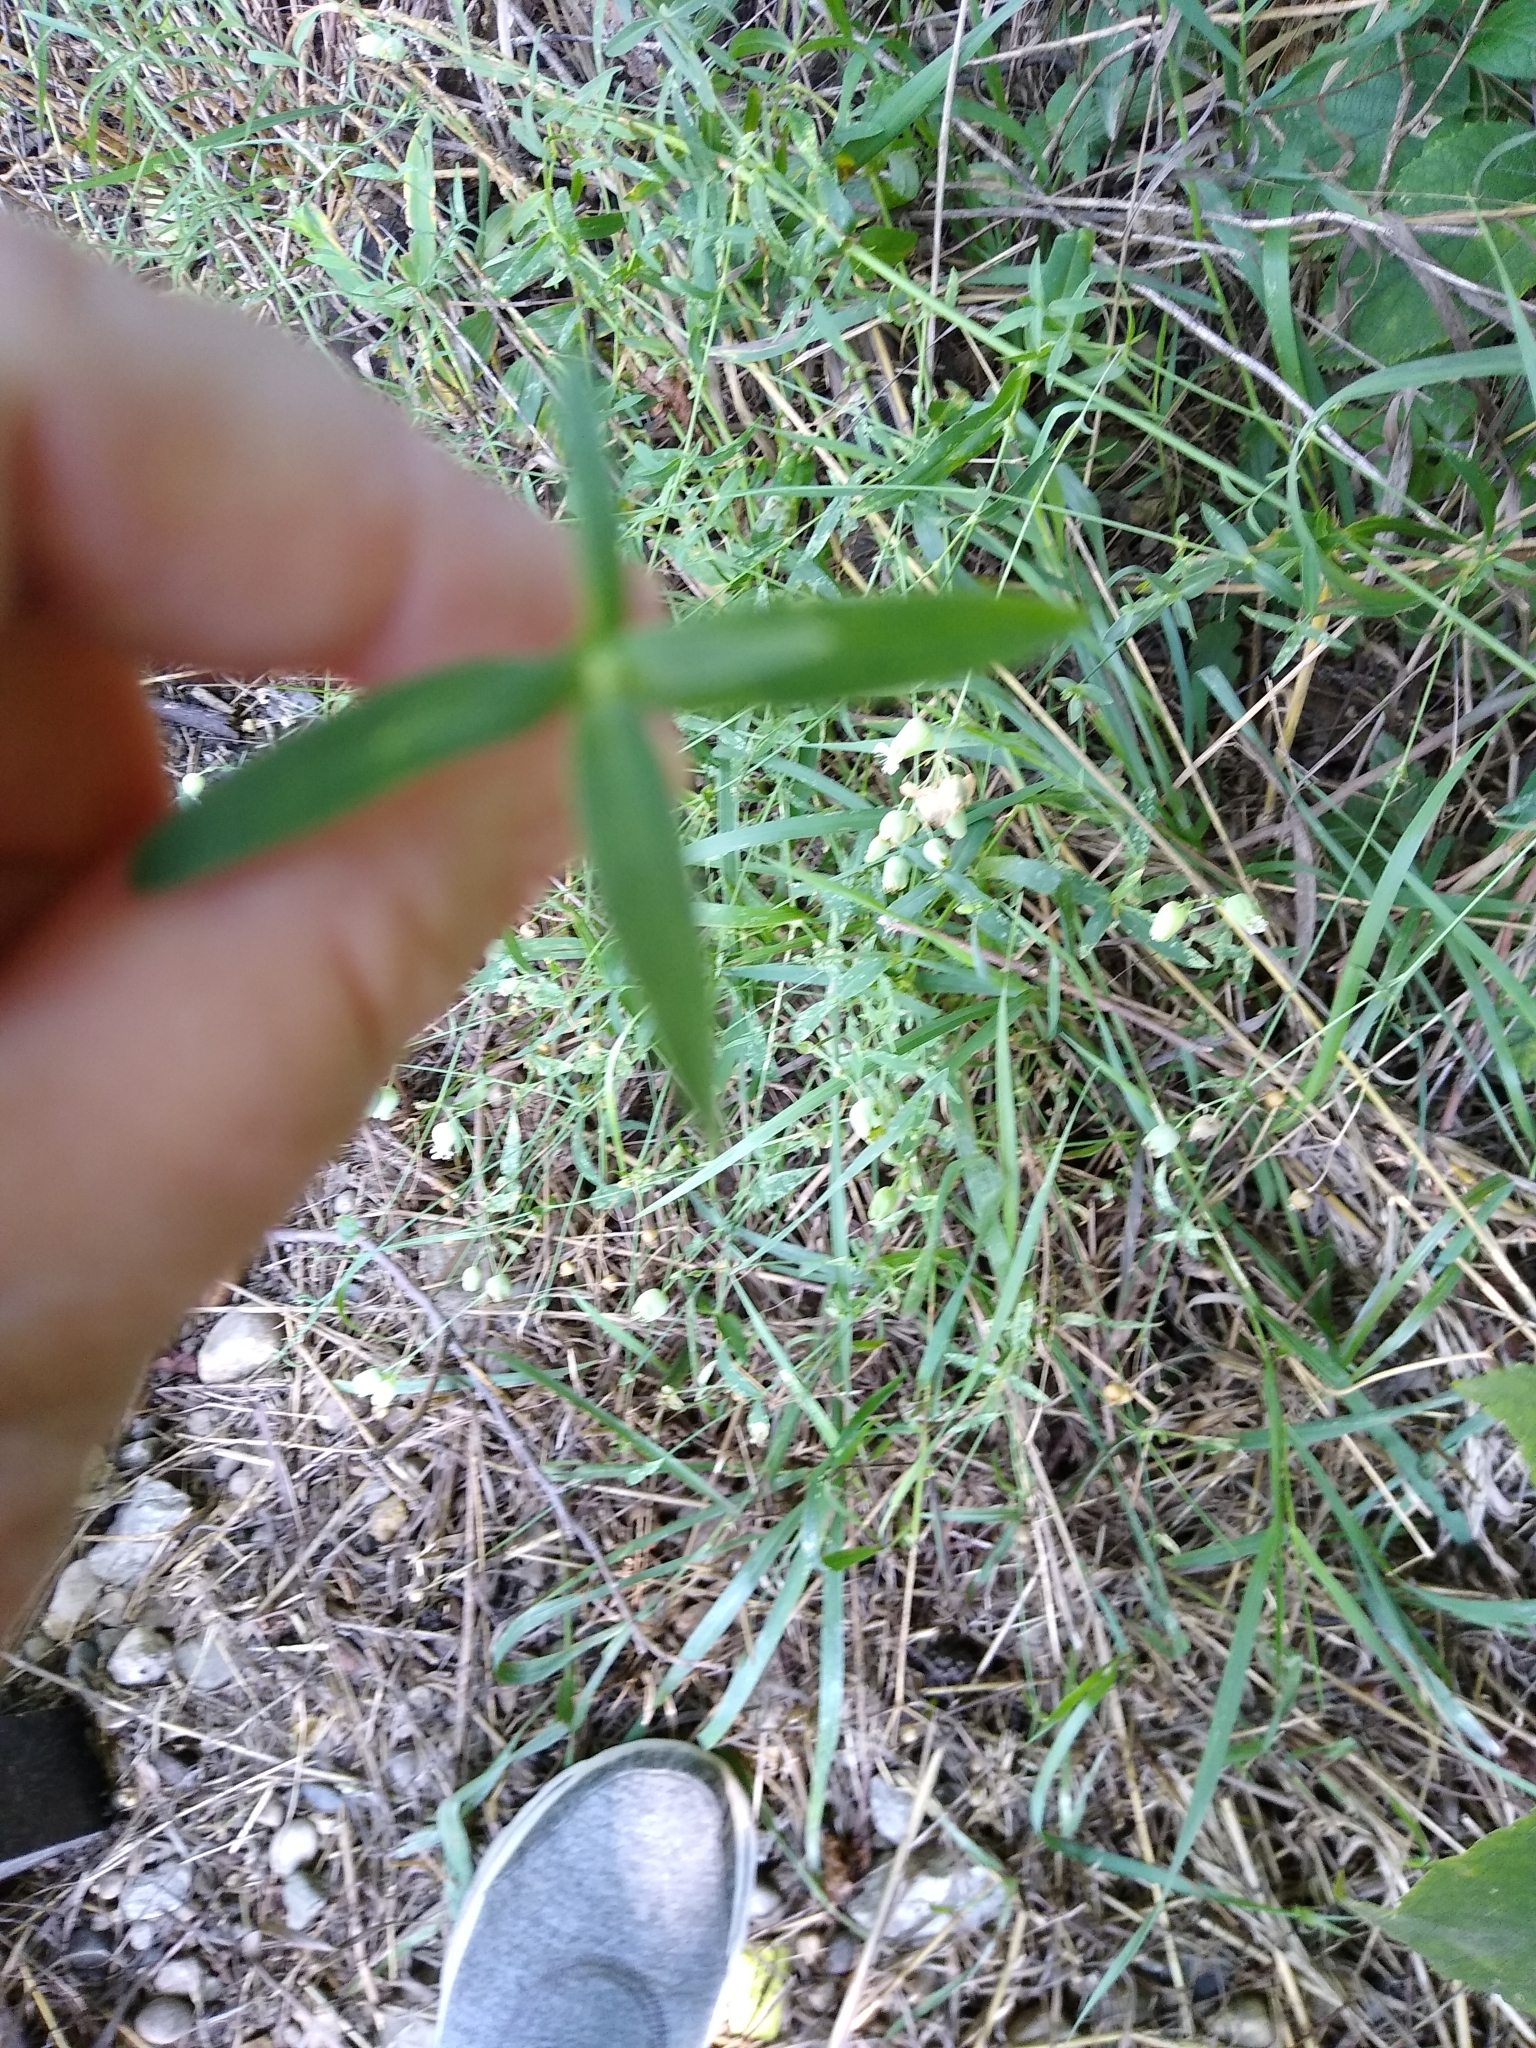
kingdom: Plantae
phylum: Tracheophyta
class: Magnoliopsida
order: Caryophyllales
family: Caryophyllaceae
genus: Silene
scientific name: Silene vulgaris
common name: Bladder campion
